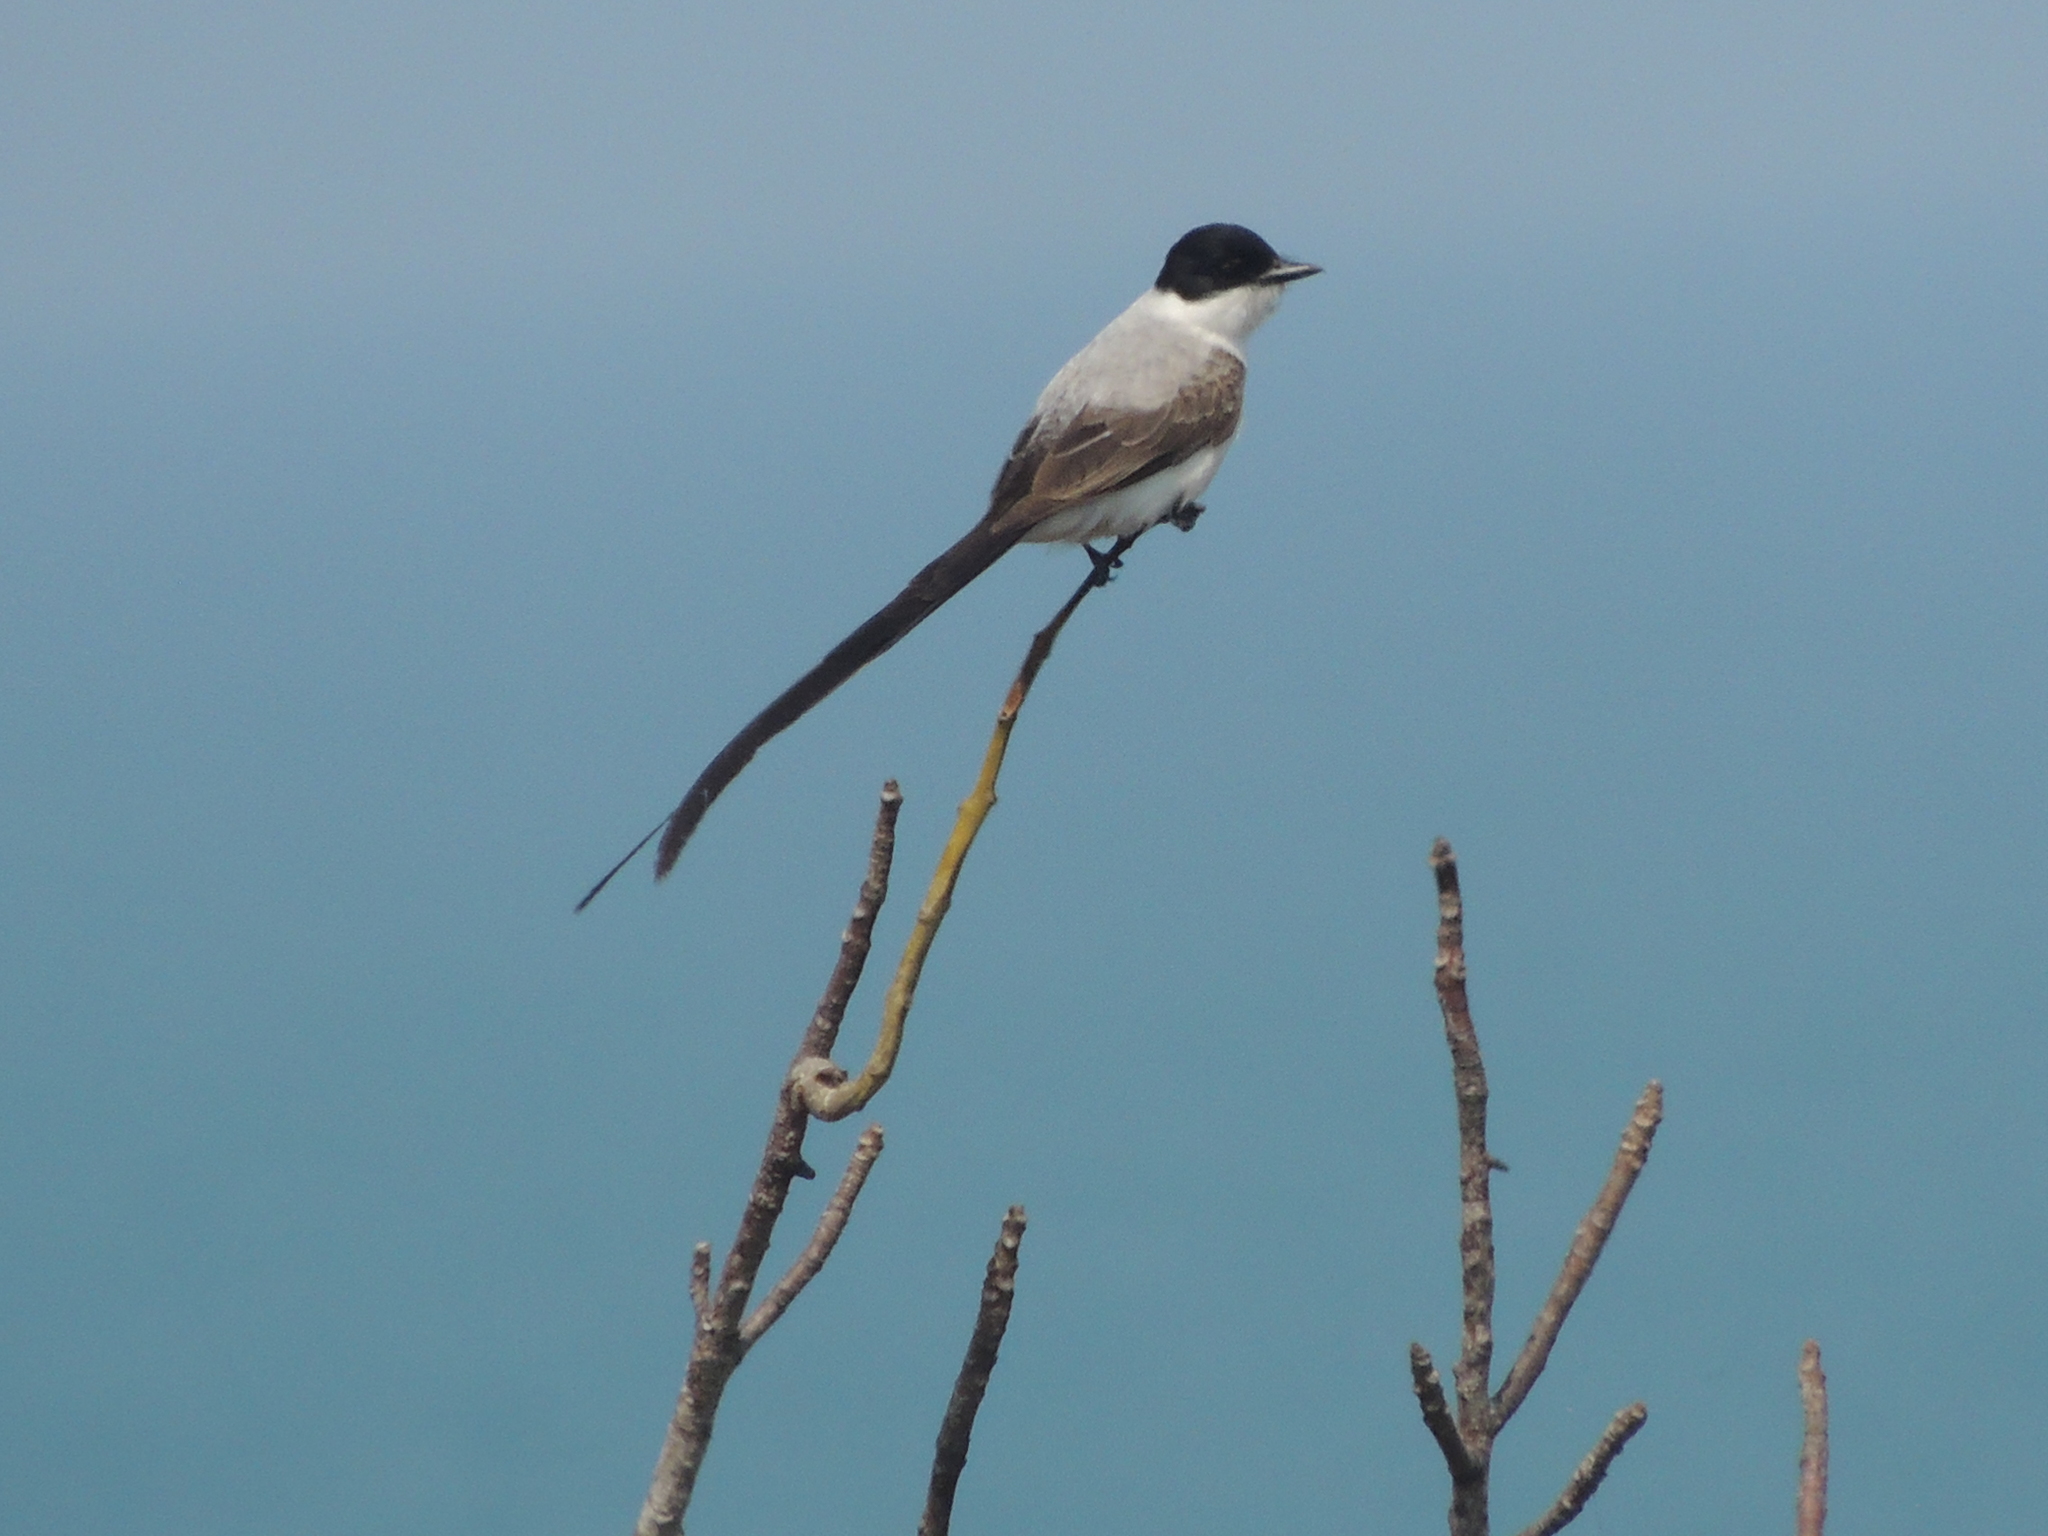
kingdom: Animalia
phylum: Chordata
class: Aves
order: Passeriformes
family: Tyrannidae
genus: Tyrannus
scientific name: Tyrannus savana
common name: Fork-tailed flycatcher
